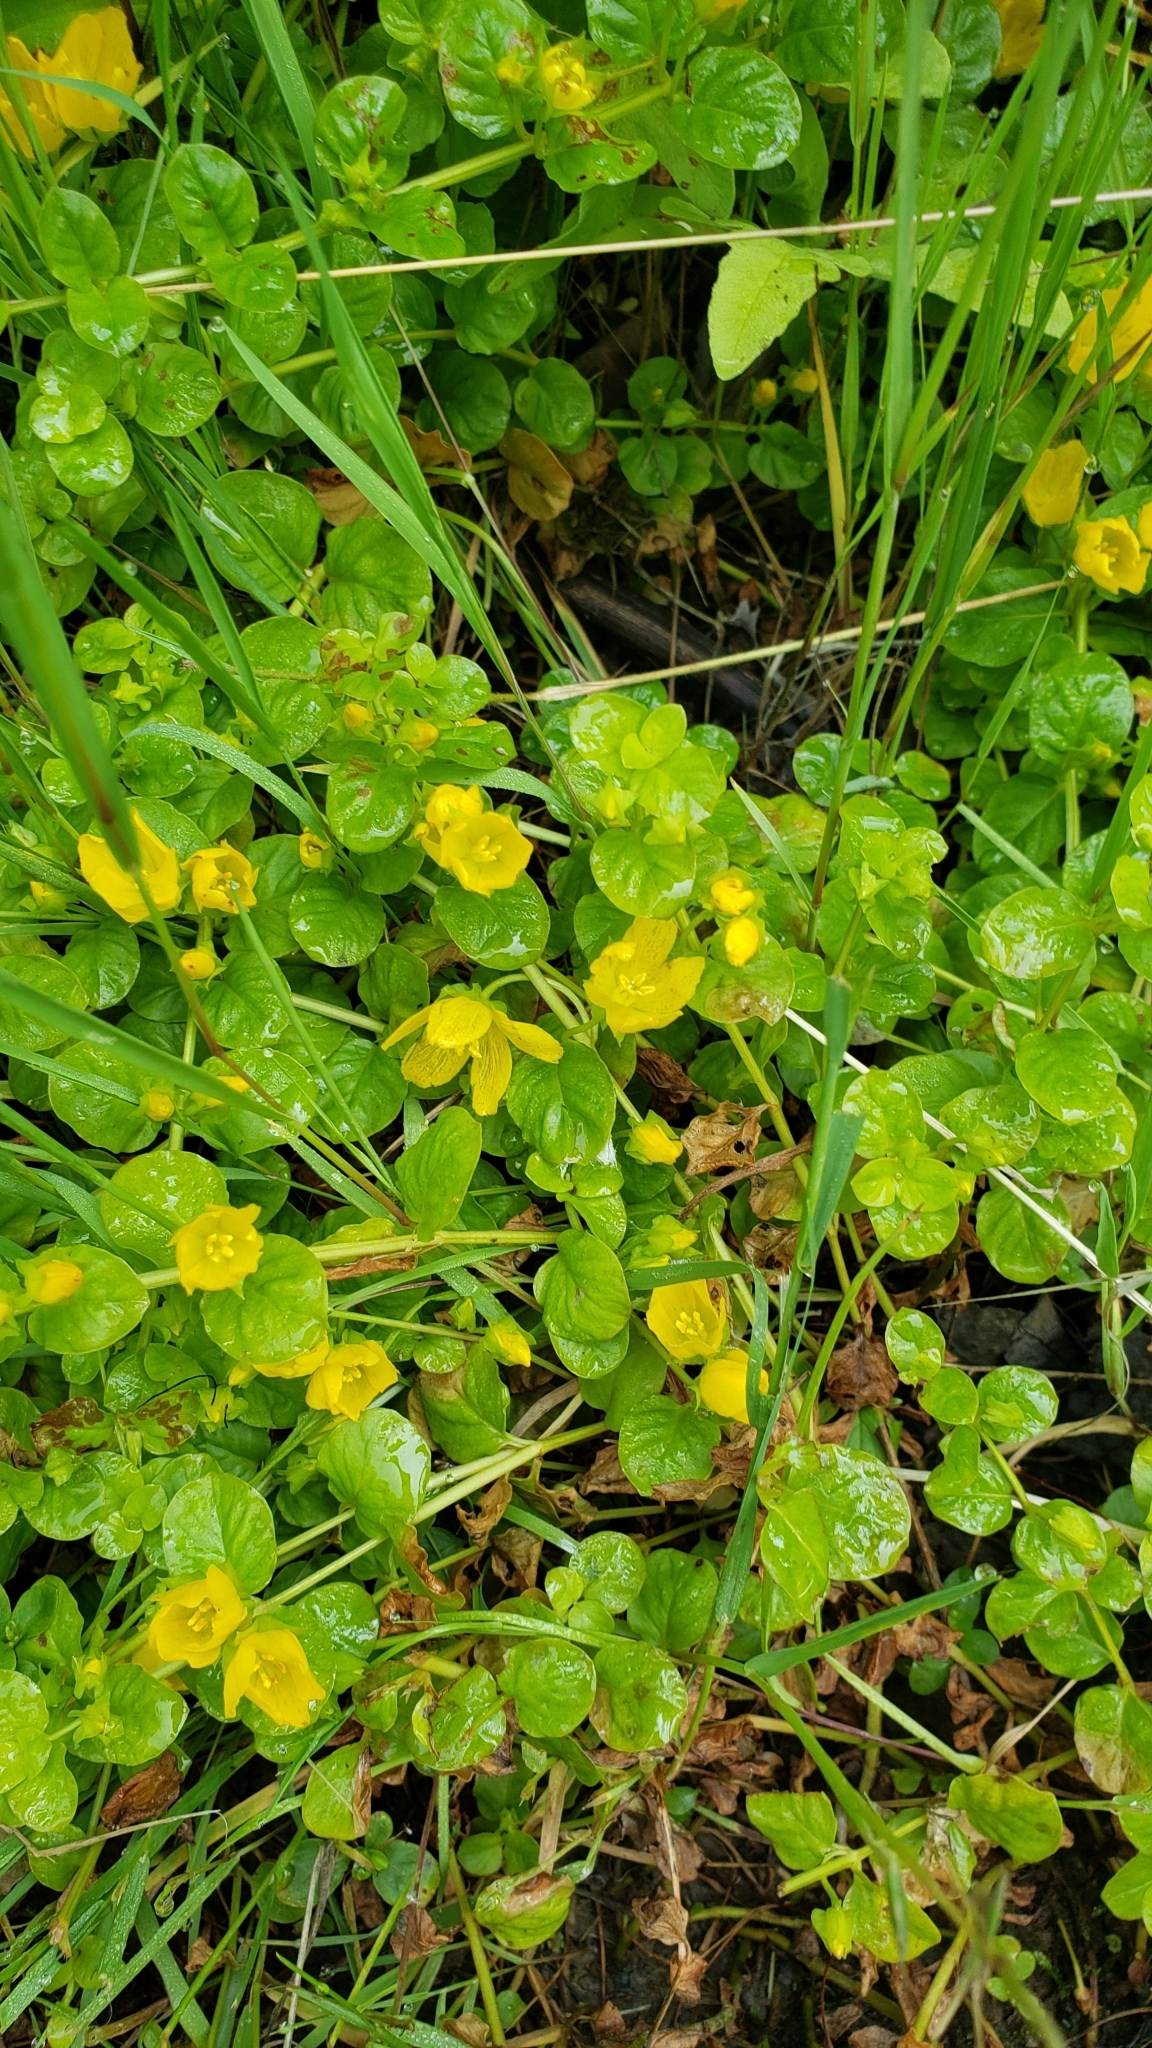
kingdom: Plantae
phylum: Tracheophyta
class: Magnoliopsida
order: Ericales
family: Primulaceae
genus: Lysimachia
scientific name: Lysimachia nummularia
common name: Moneywort
